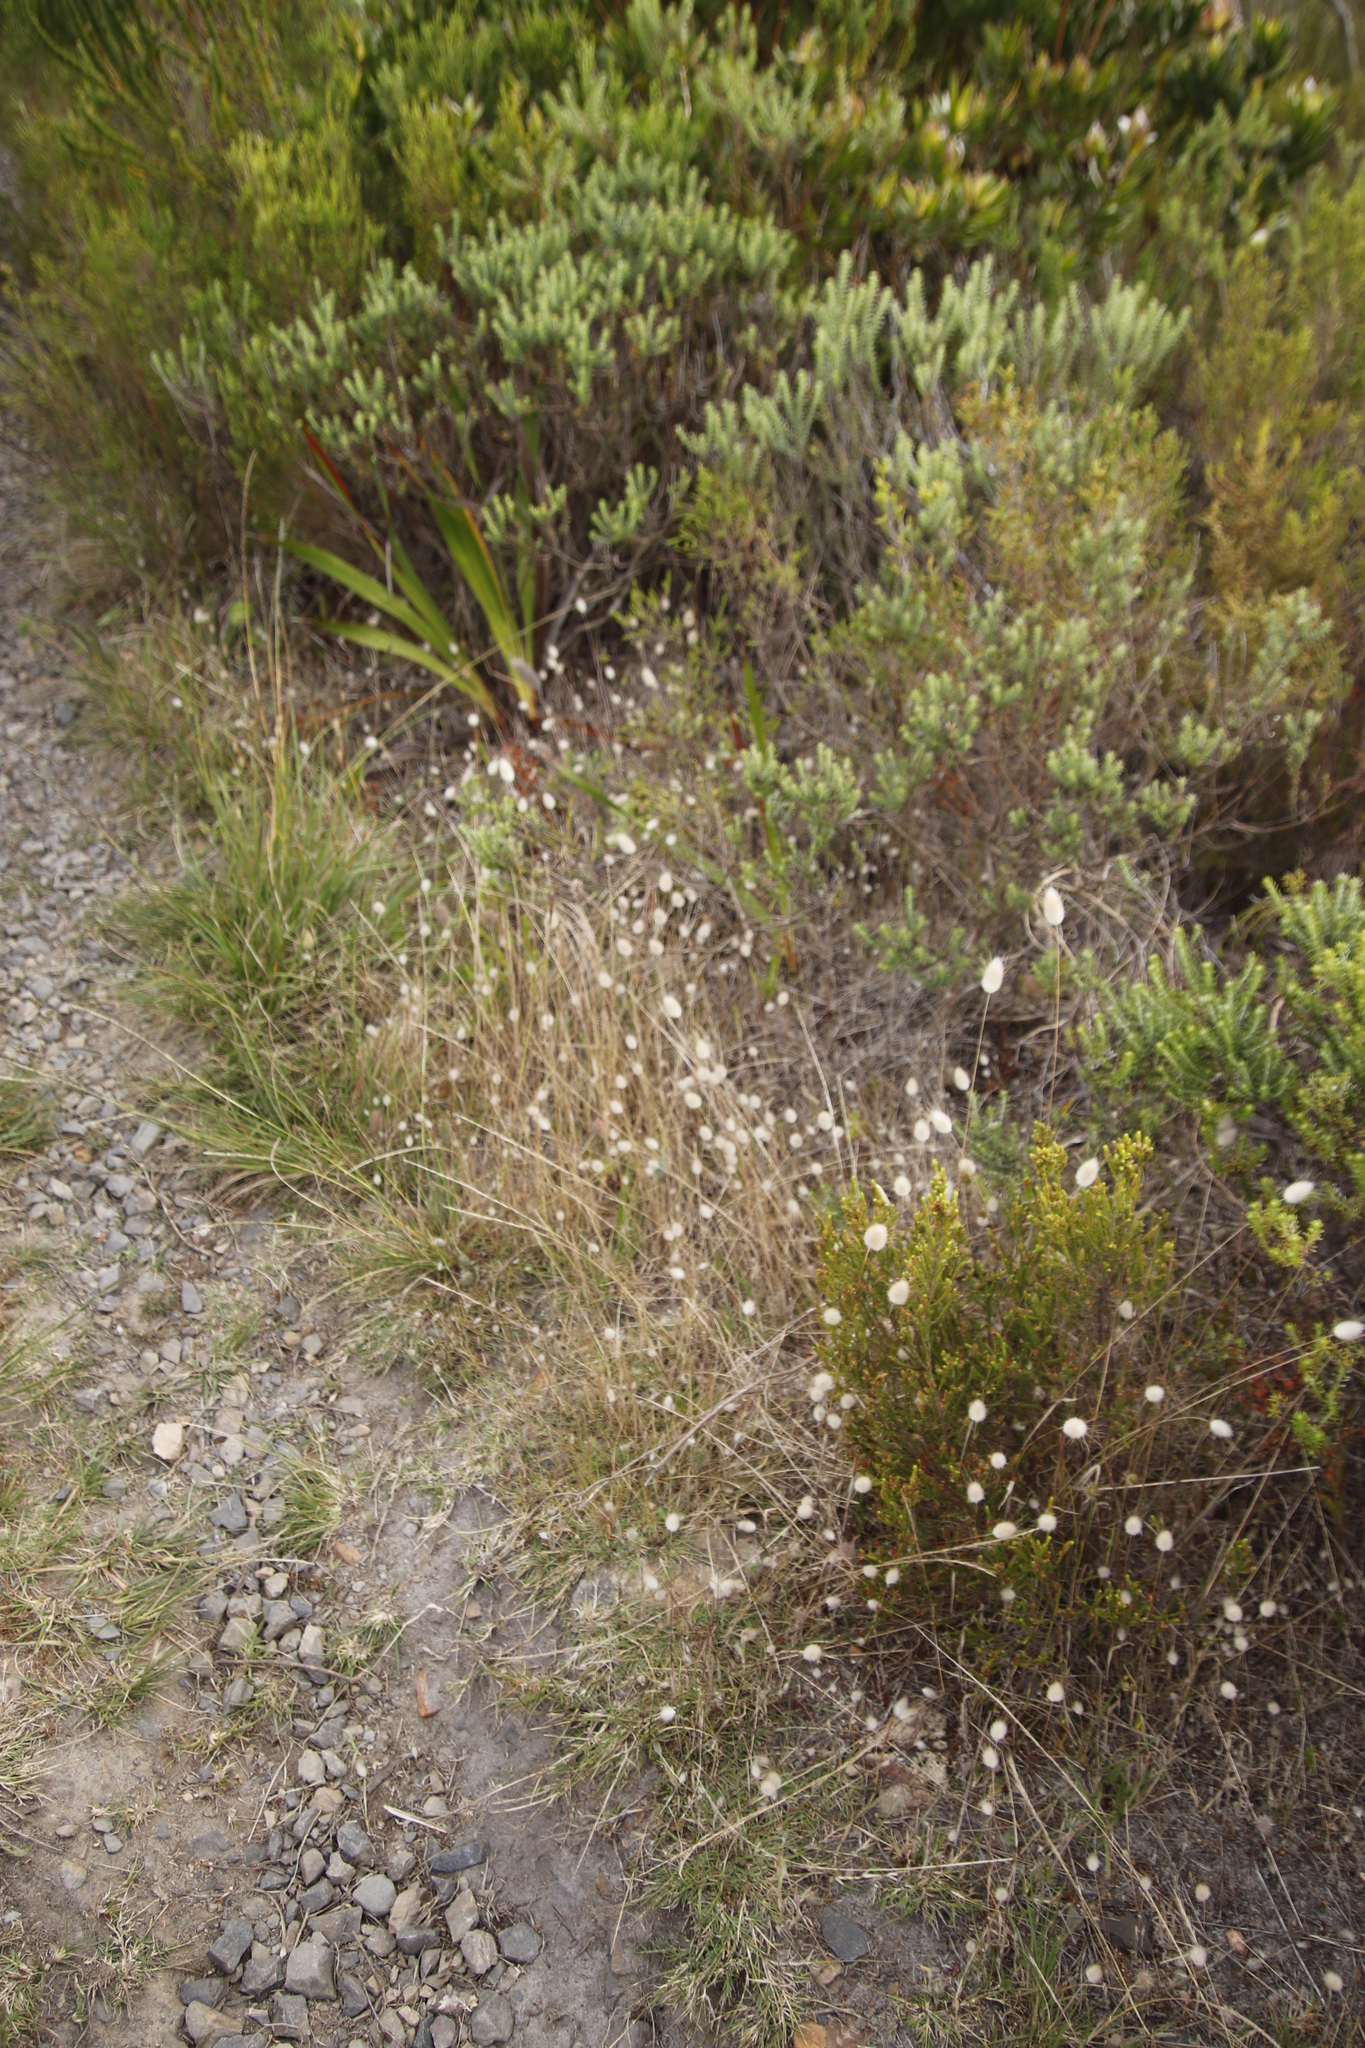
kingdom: Plantae
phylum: Tracheophyta
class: Liliopsida
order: Poales
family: Poaceae
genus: Lagurus
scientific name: Lagurus ovatus
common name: Hare's-tail
